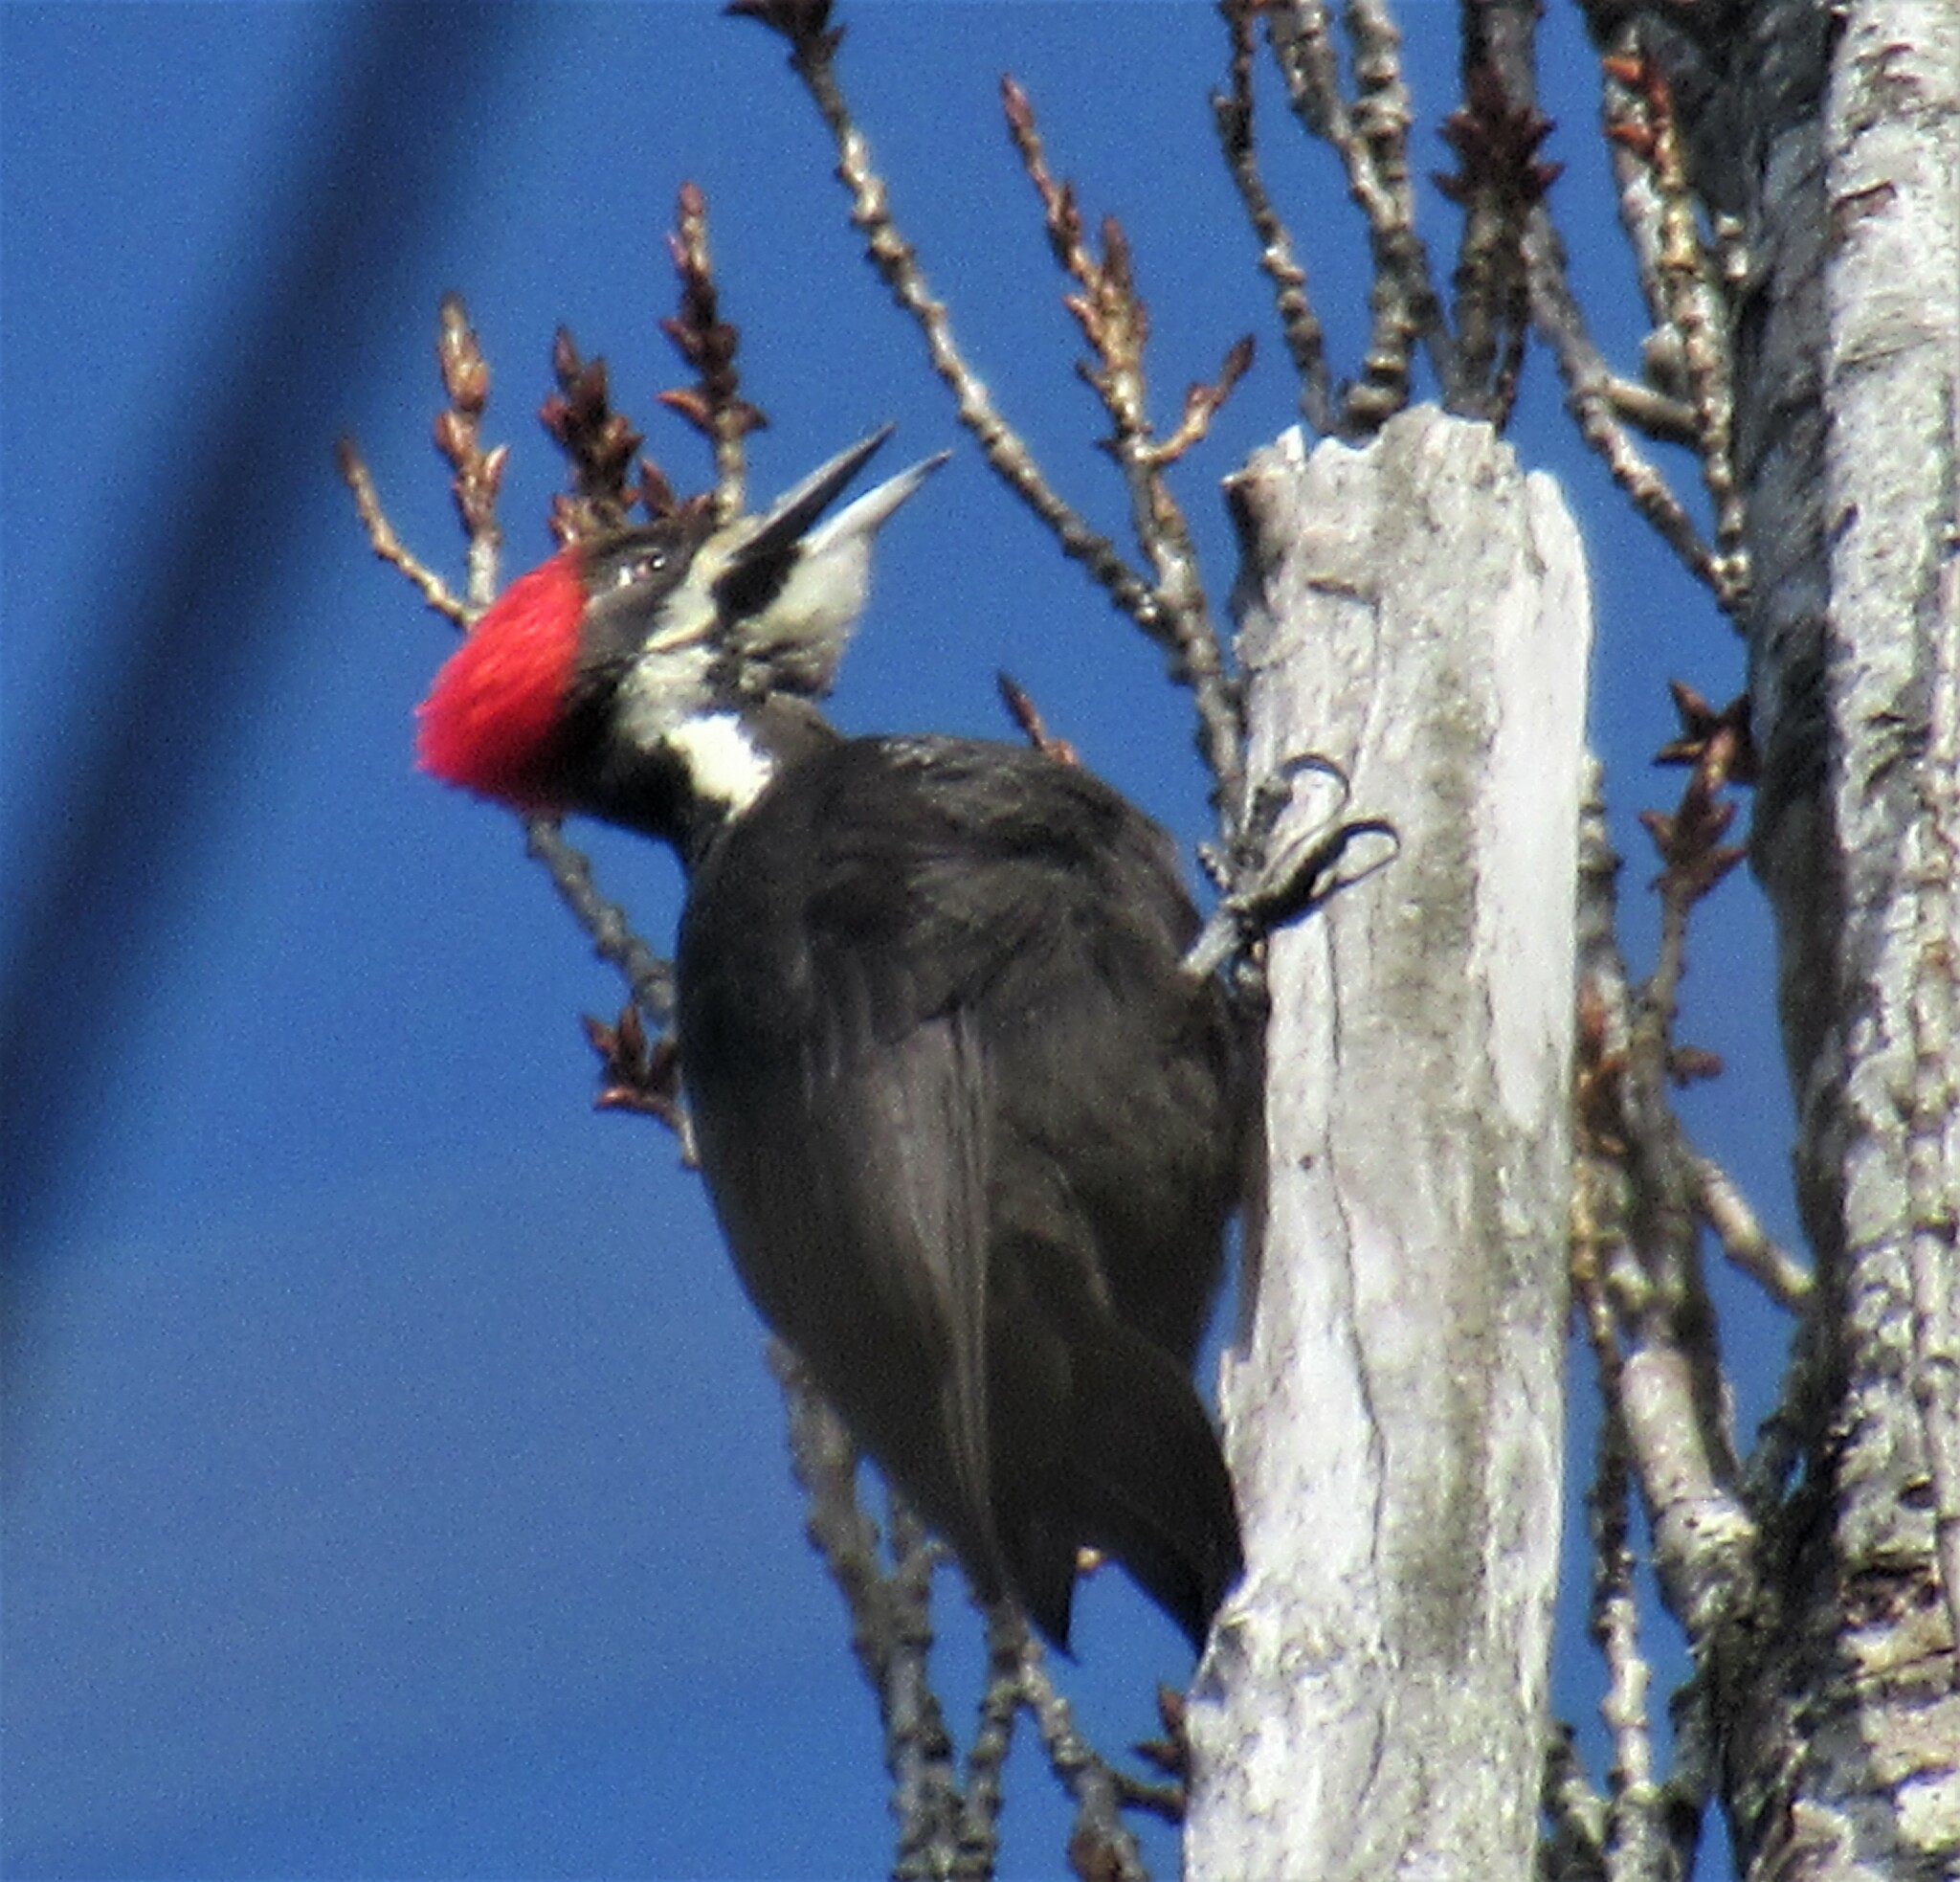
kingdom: Animalia
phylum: Chordata
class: Aves
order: Piciformes
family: Picidae
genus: Dryocopus
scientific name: Dryocopus pileatus
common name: Pileated woodpecker
